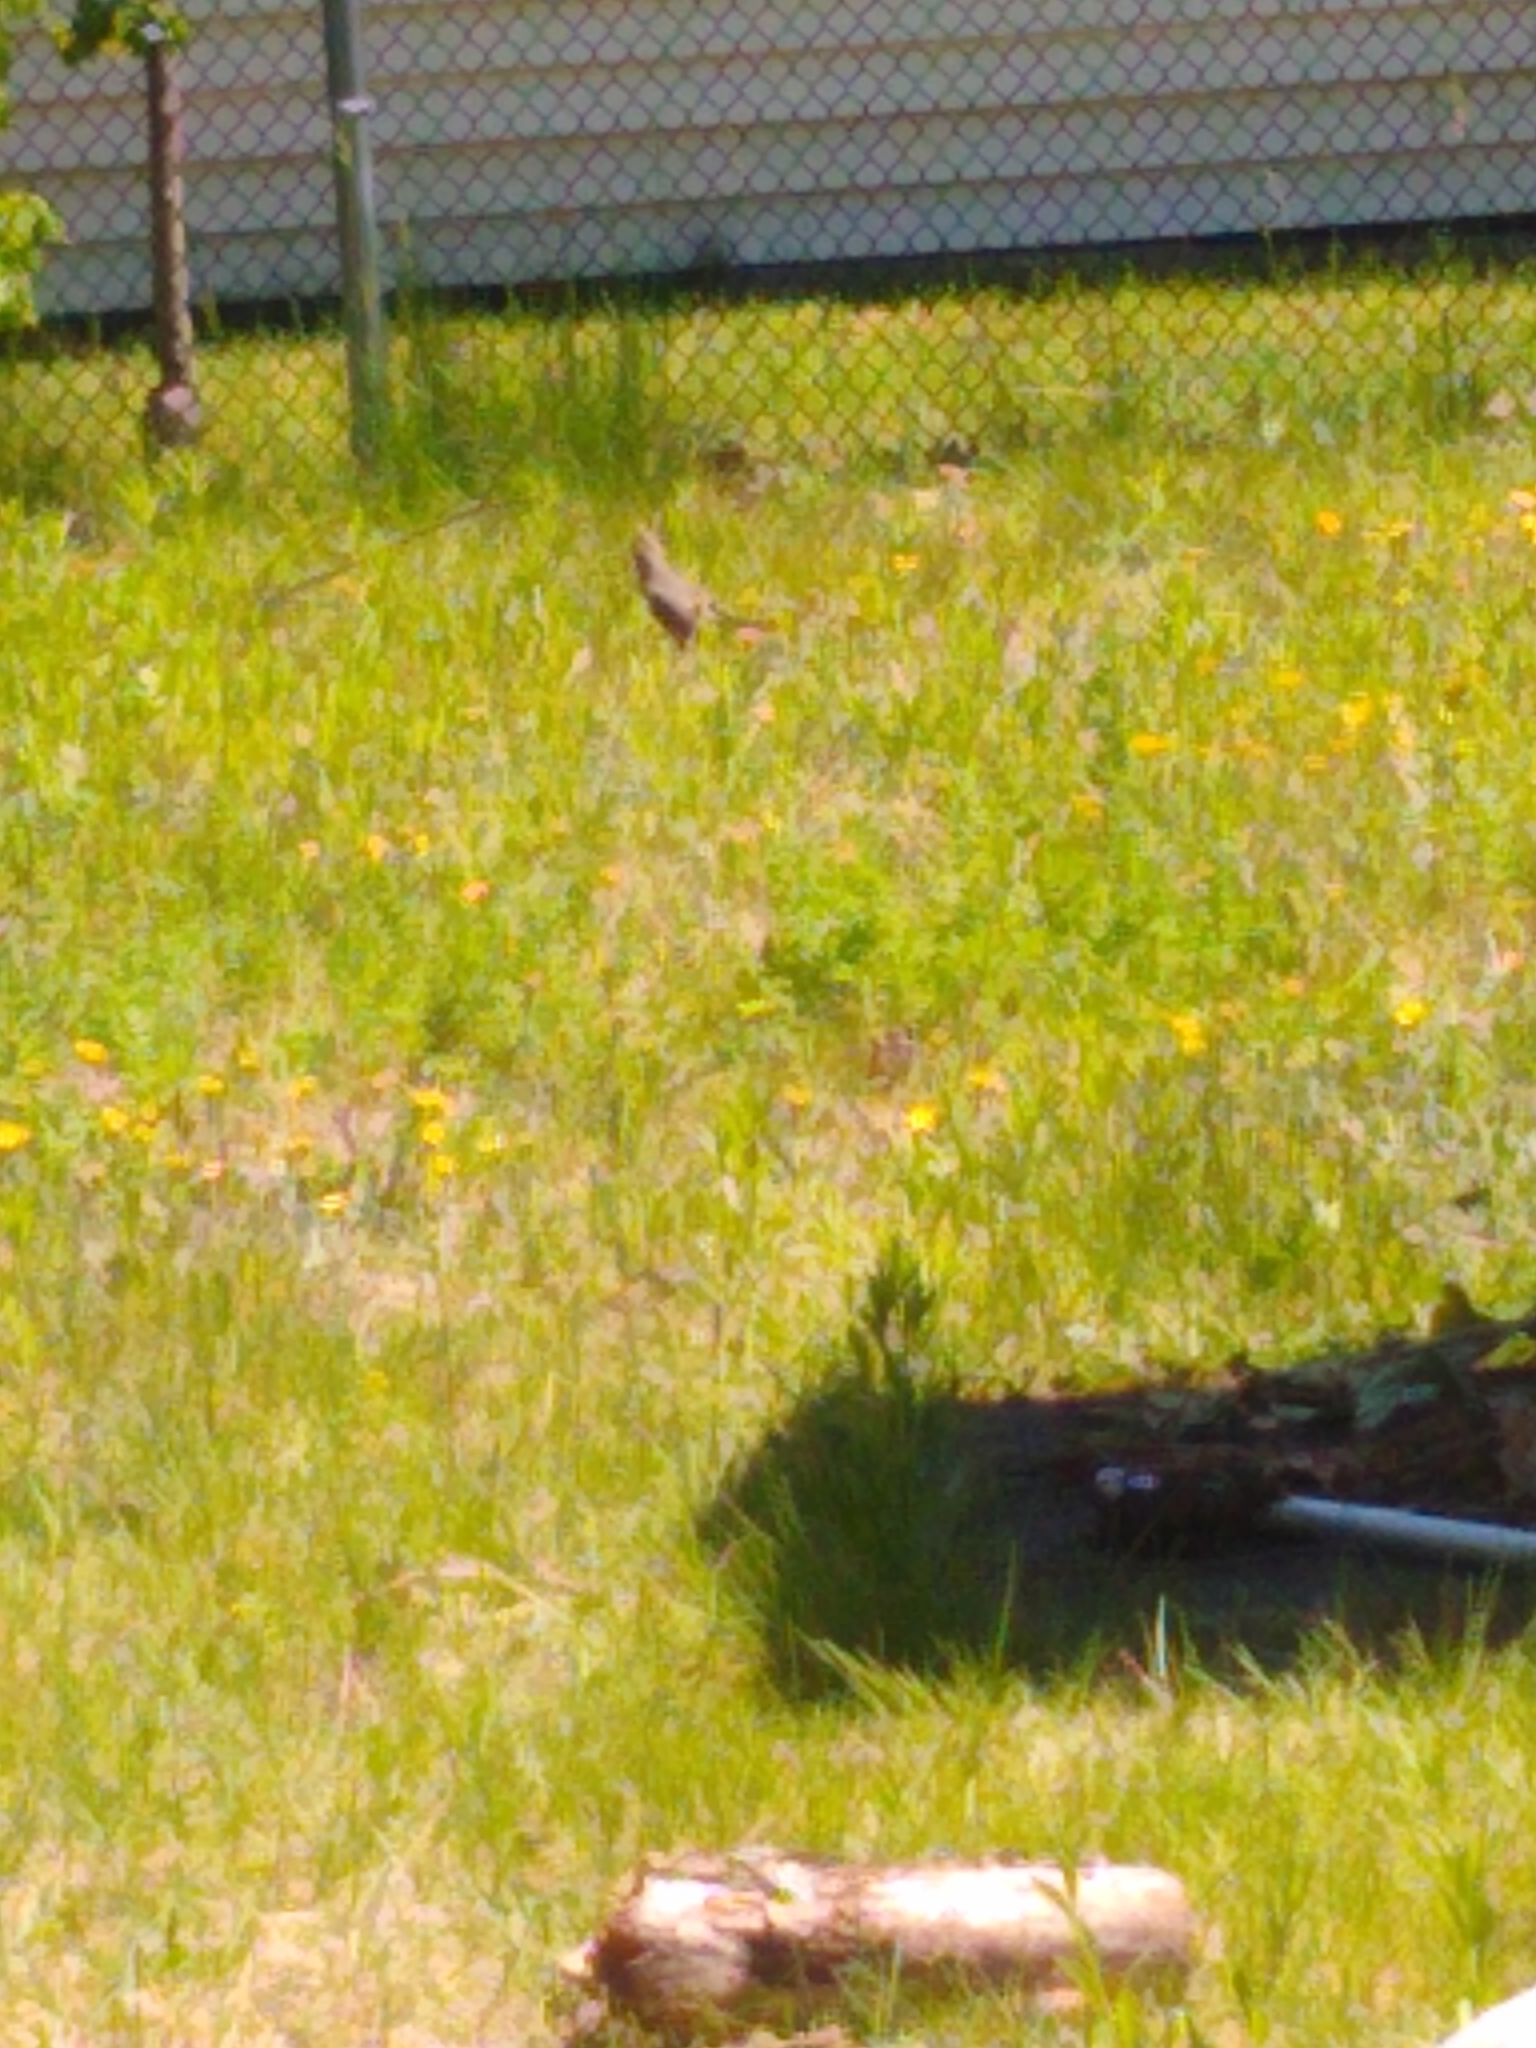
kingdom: Animalia
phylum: Chordata
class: Aves
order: Passeriformes
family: Turdidae
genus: Turdus
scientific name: Turdus migratorius
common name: American robin
